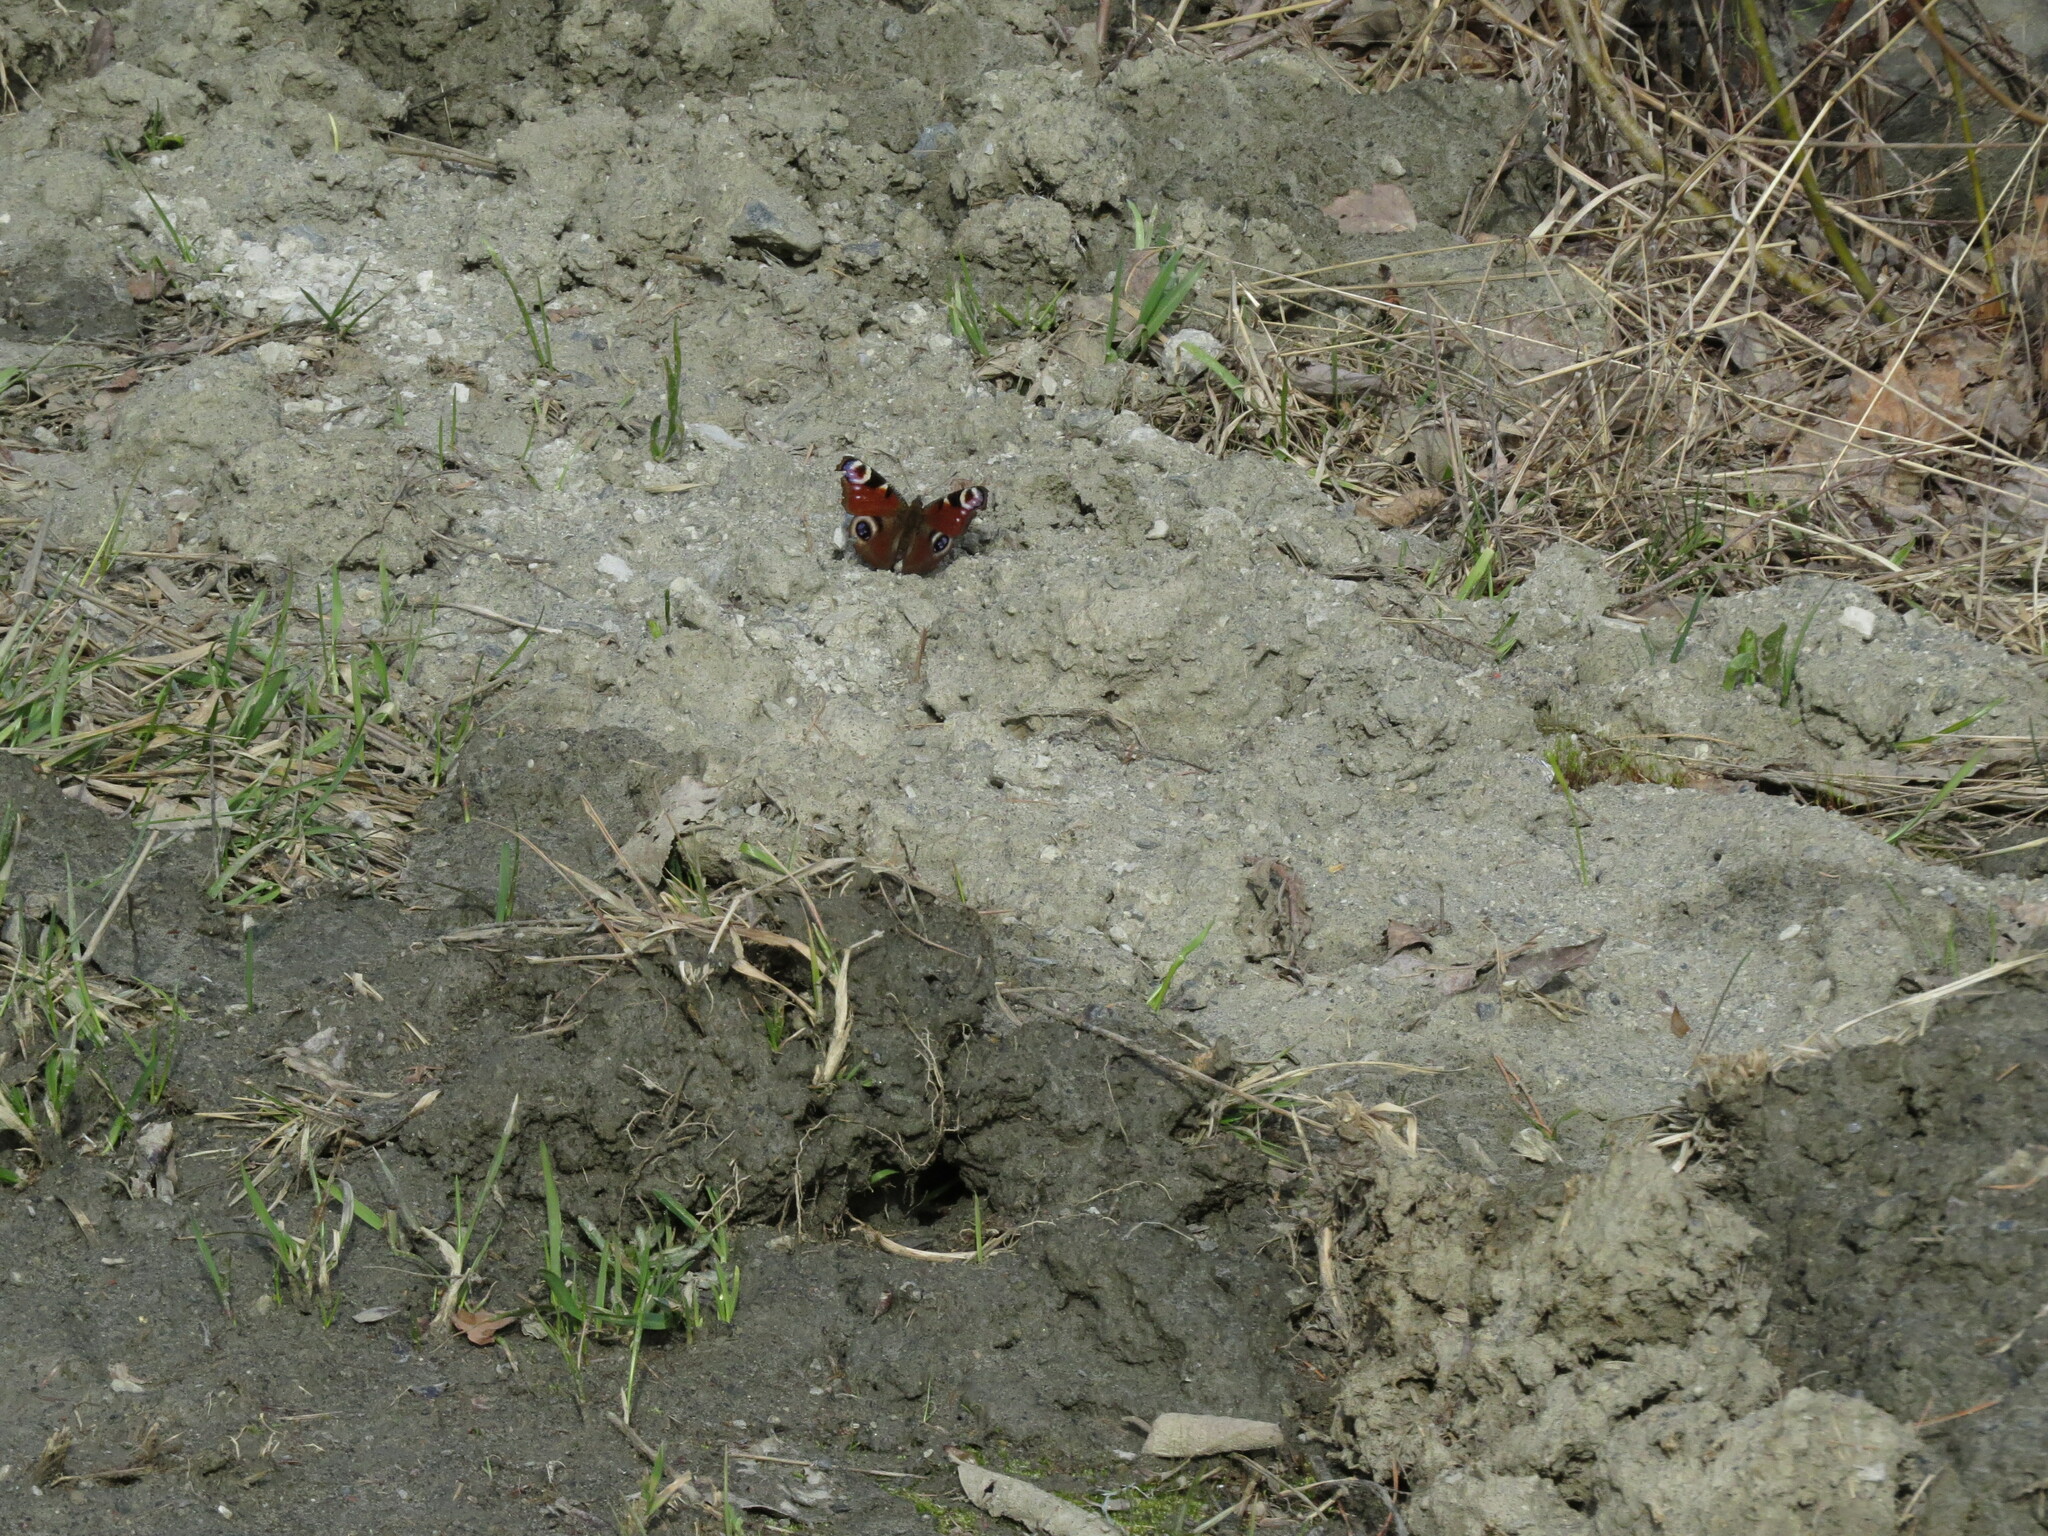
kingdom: Animalia
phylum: Arthropoda
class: Insecta
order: Lepidoptera
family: Nymphalidae
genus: Aglais
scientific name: Aglais io
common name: Peacock
